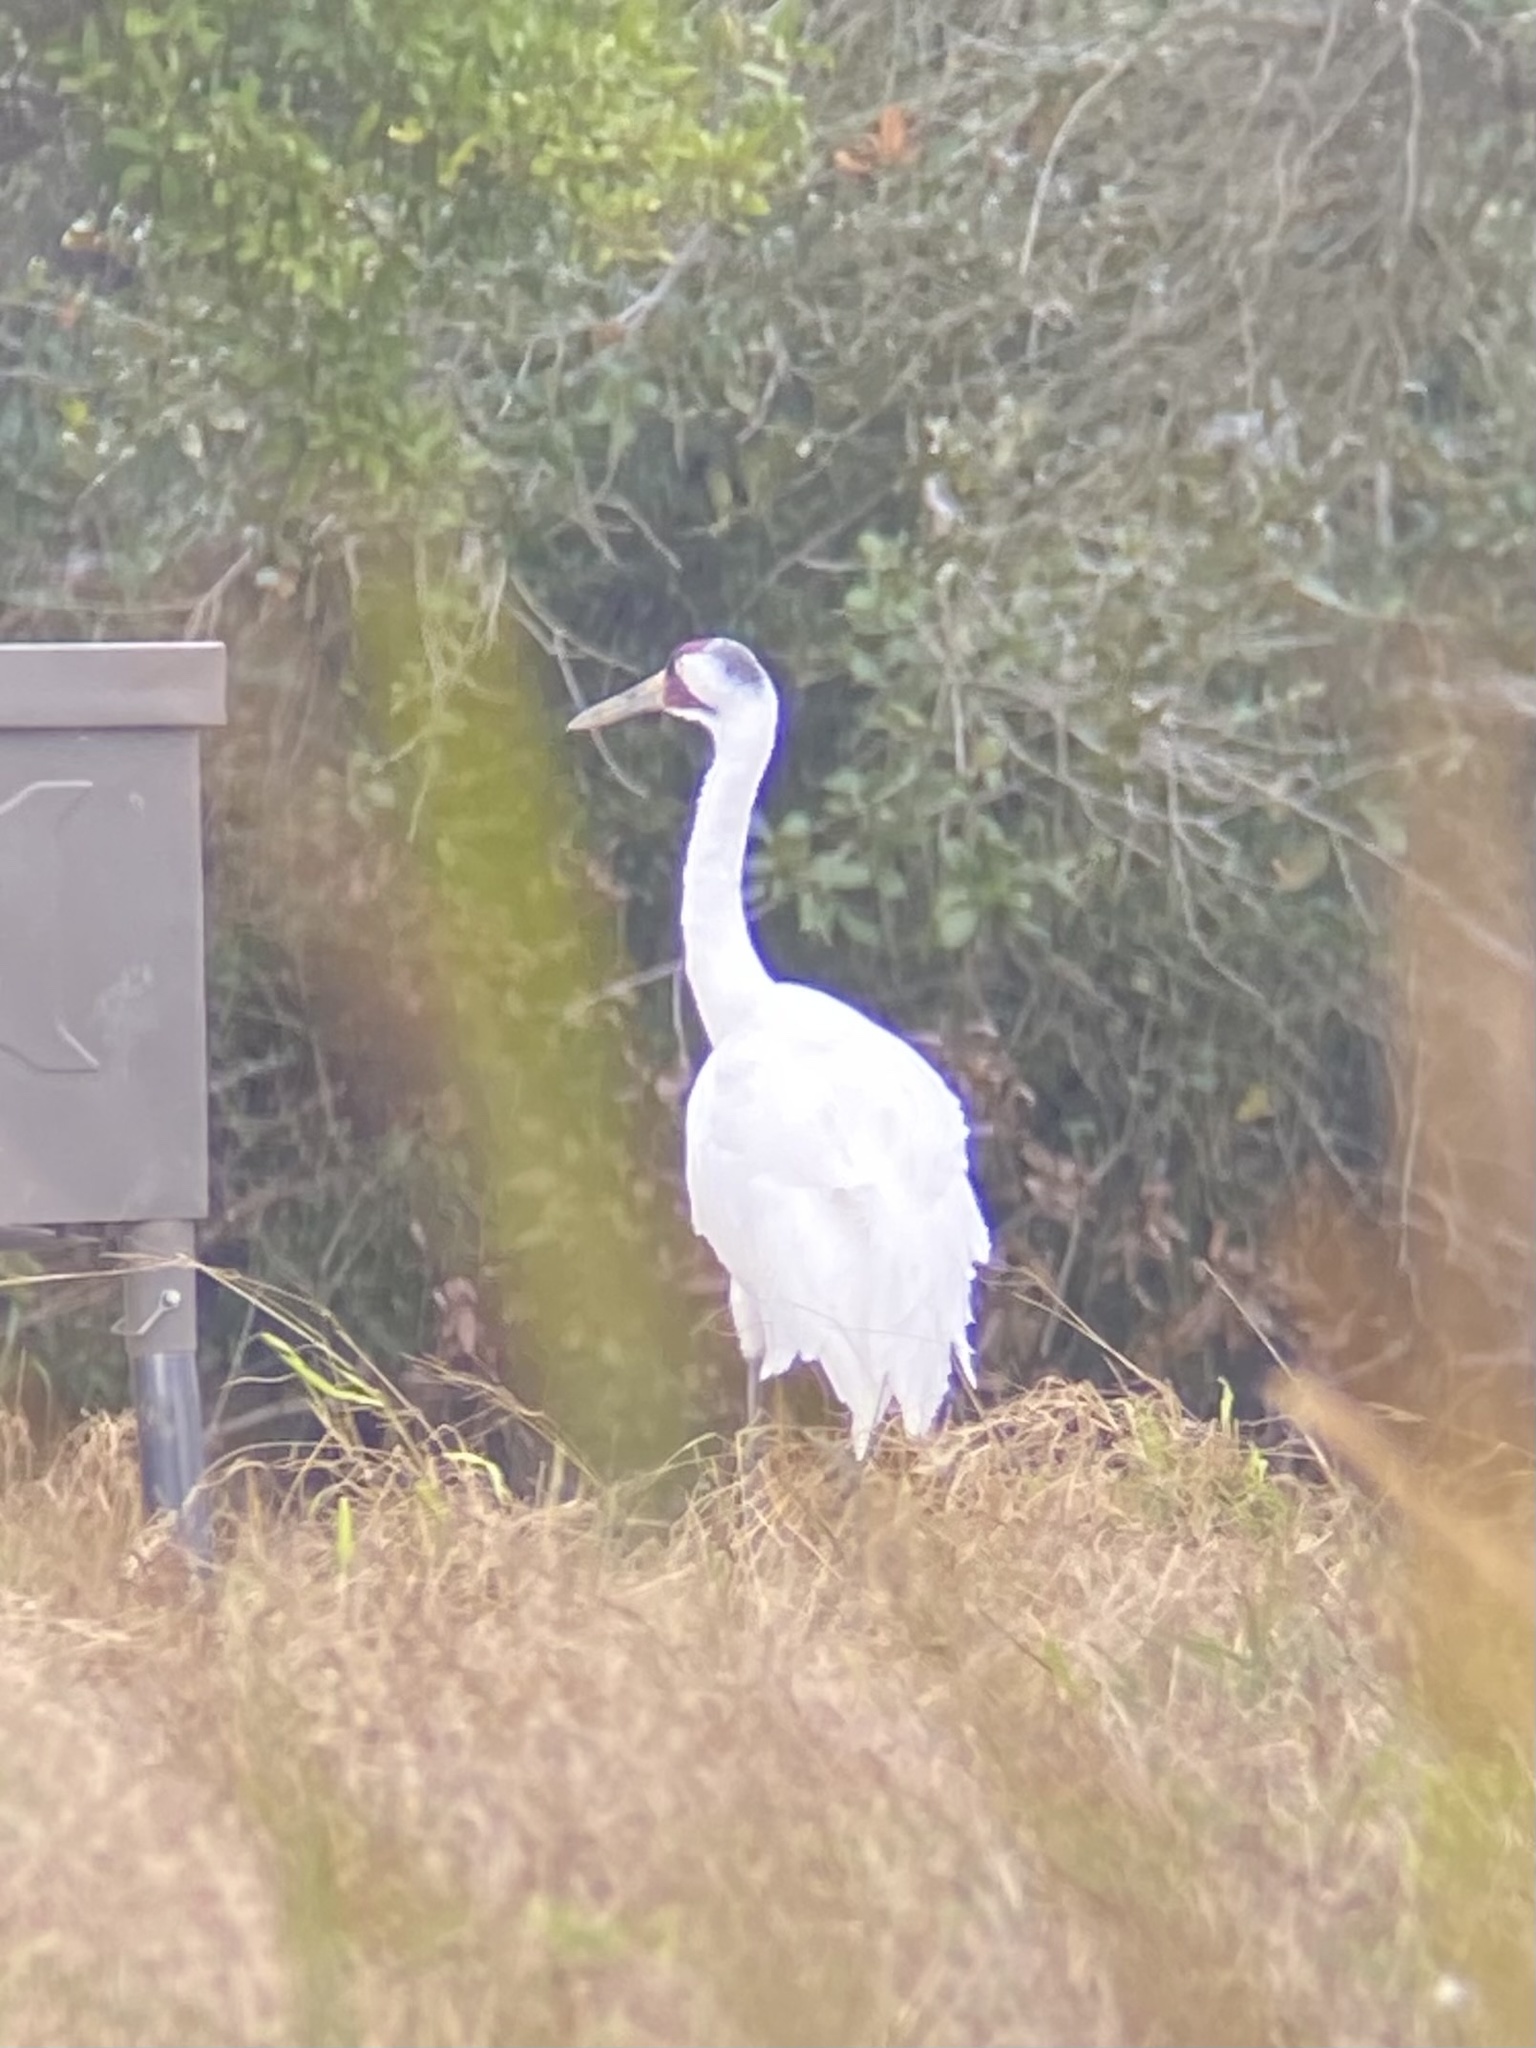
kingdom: Animalia
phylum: Chordata
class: Aves
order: Gruiformes
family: Gruidae
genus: Grus
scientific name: Grus americana
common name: Whooping crane
